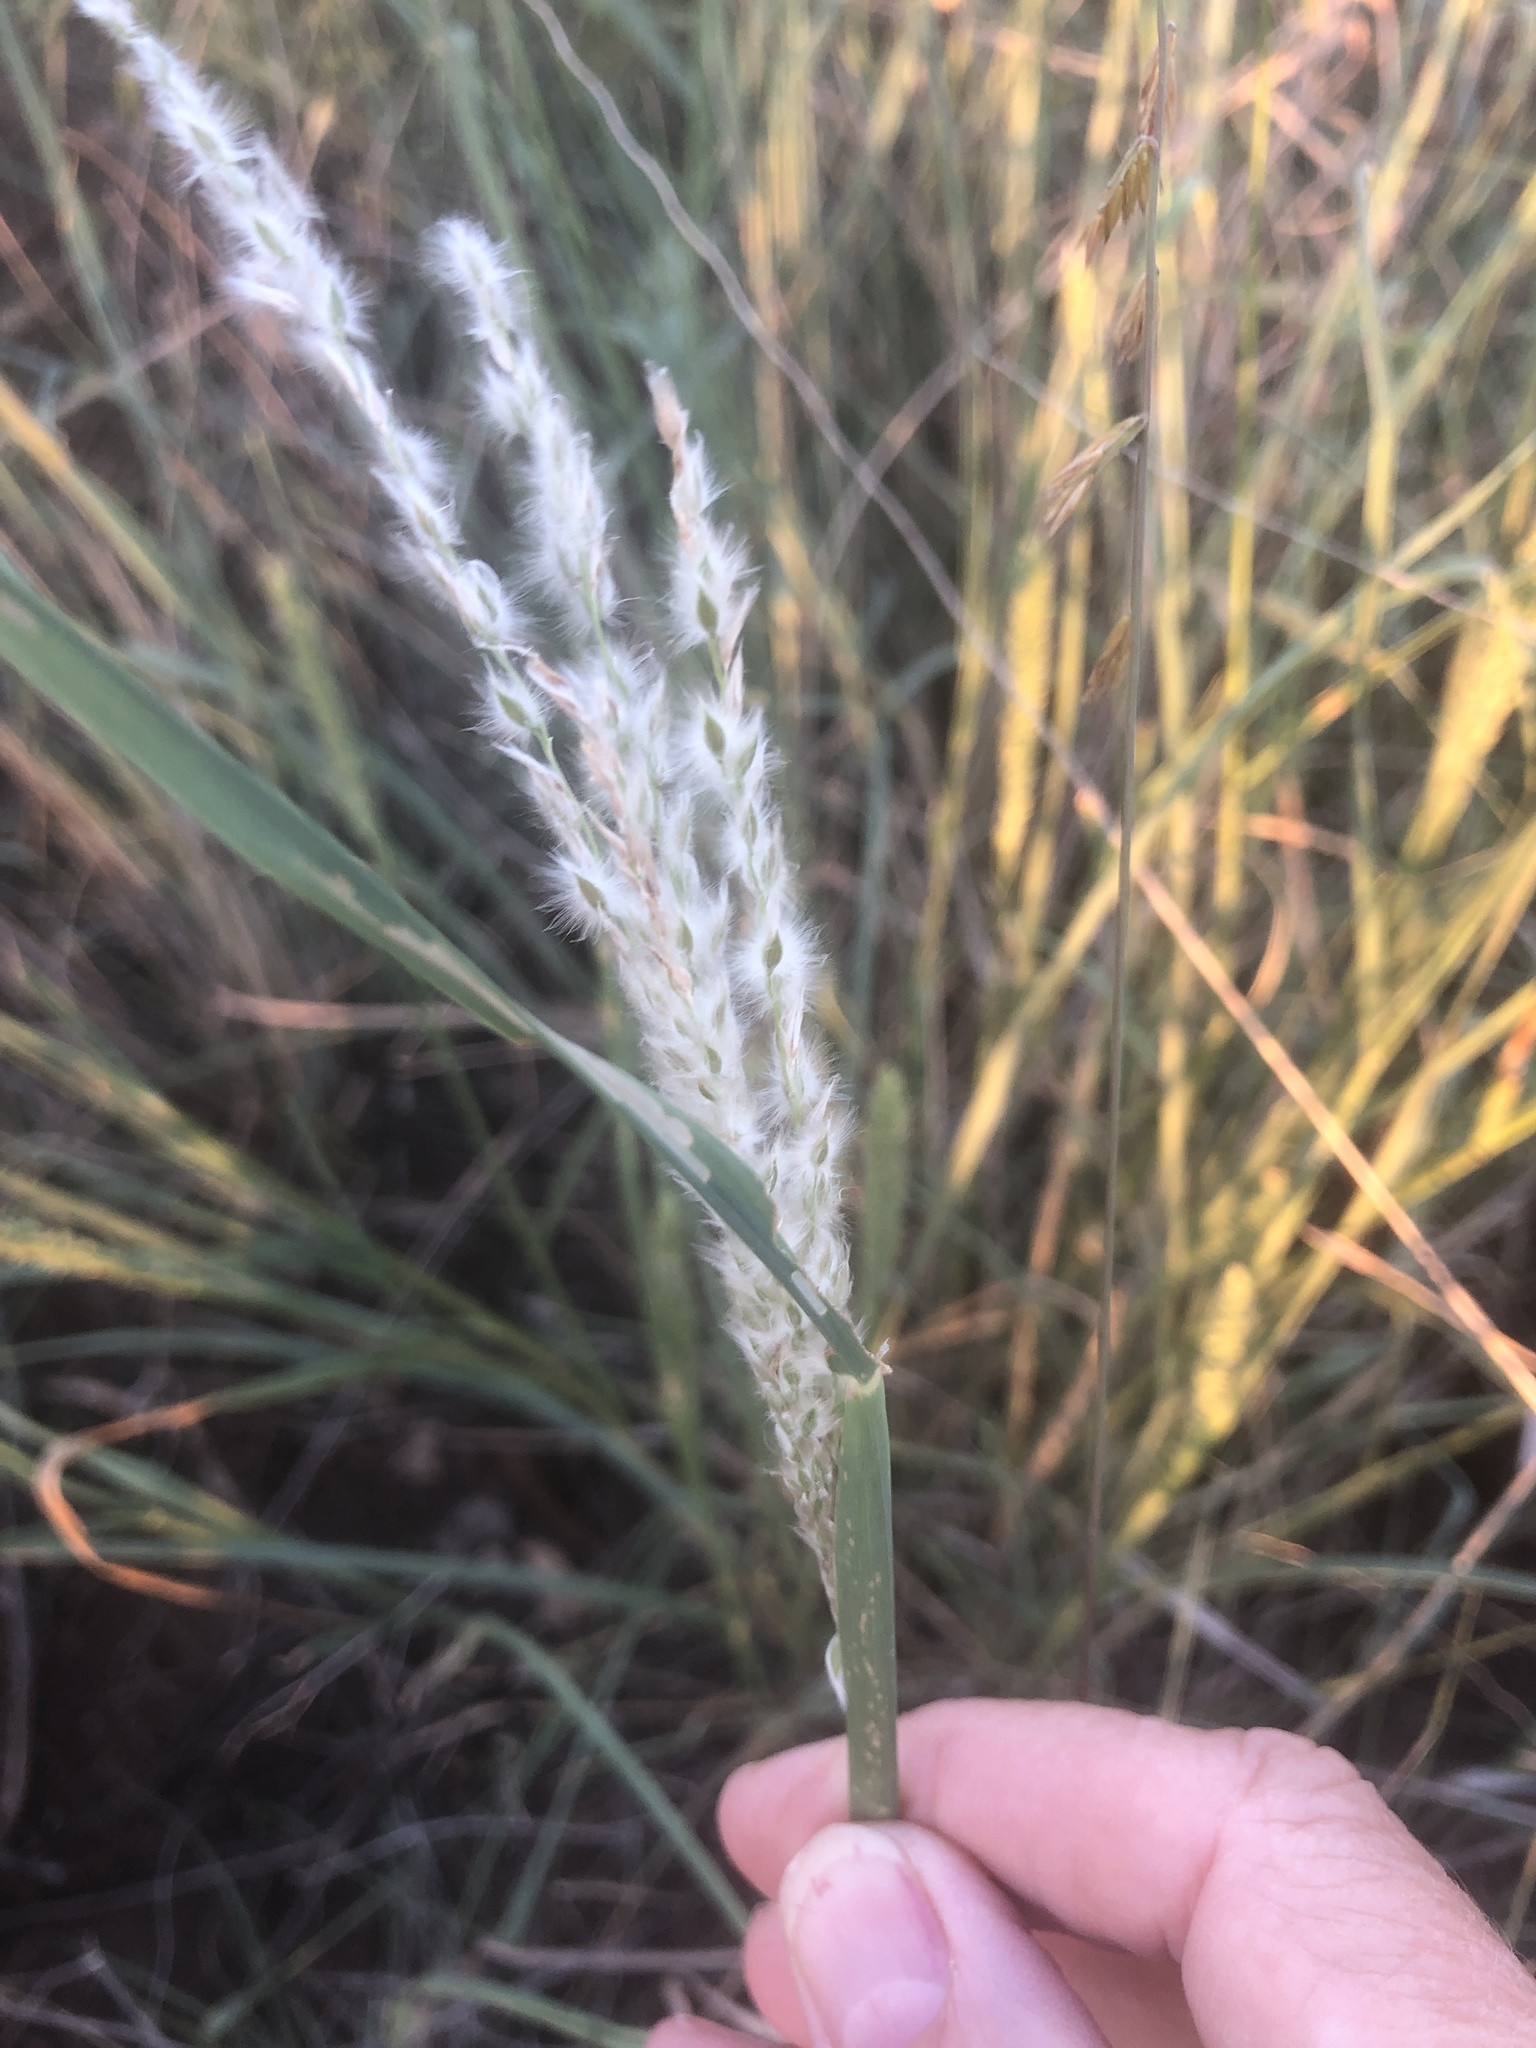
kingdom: Plantae
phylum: Tracheophyta
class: Liliopsida
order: Poales
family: Poaceae
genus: Digitaria
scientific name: Digitaria californica
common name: Arizona cottontop
